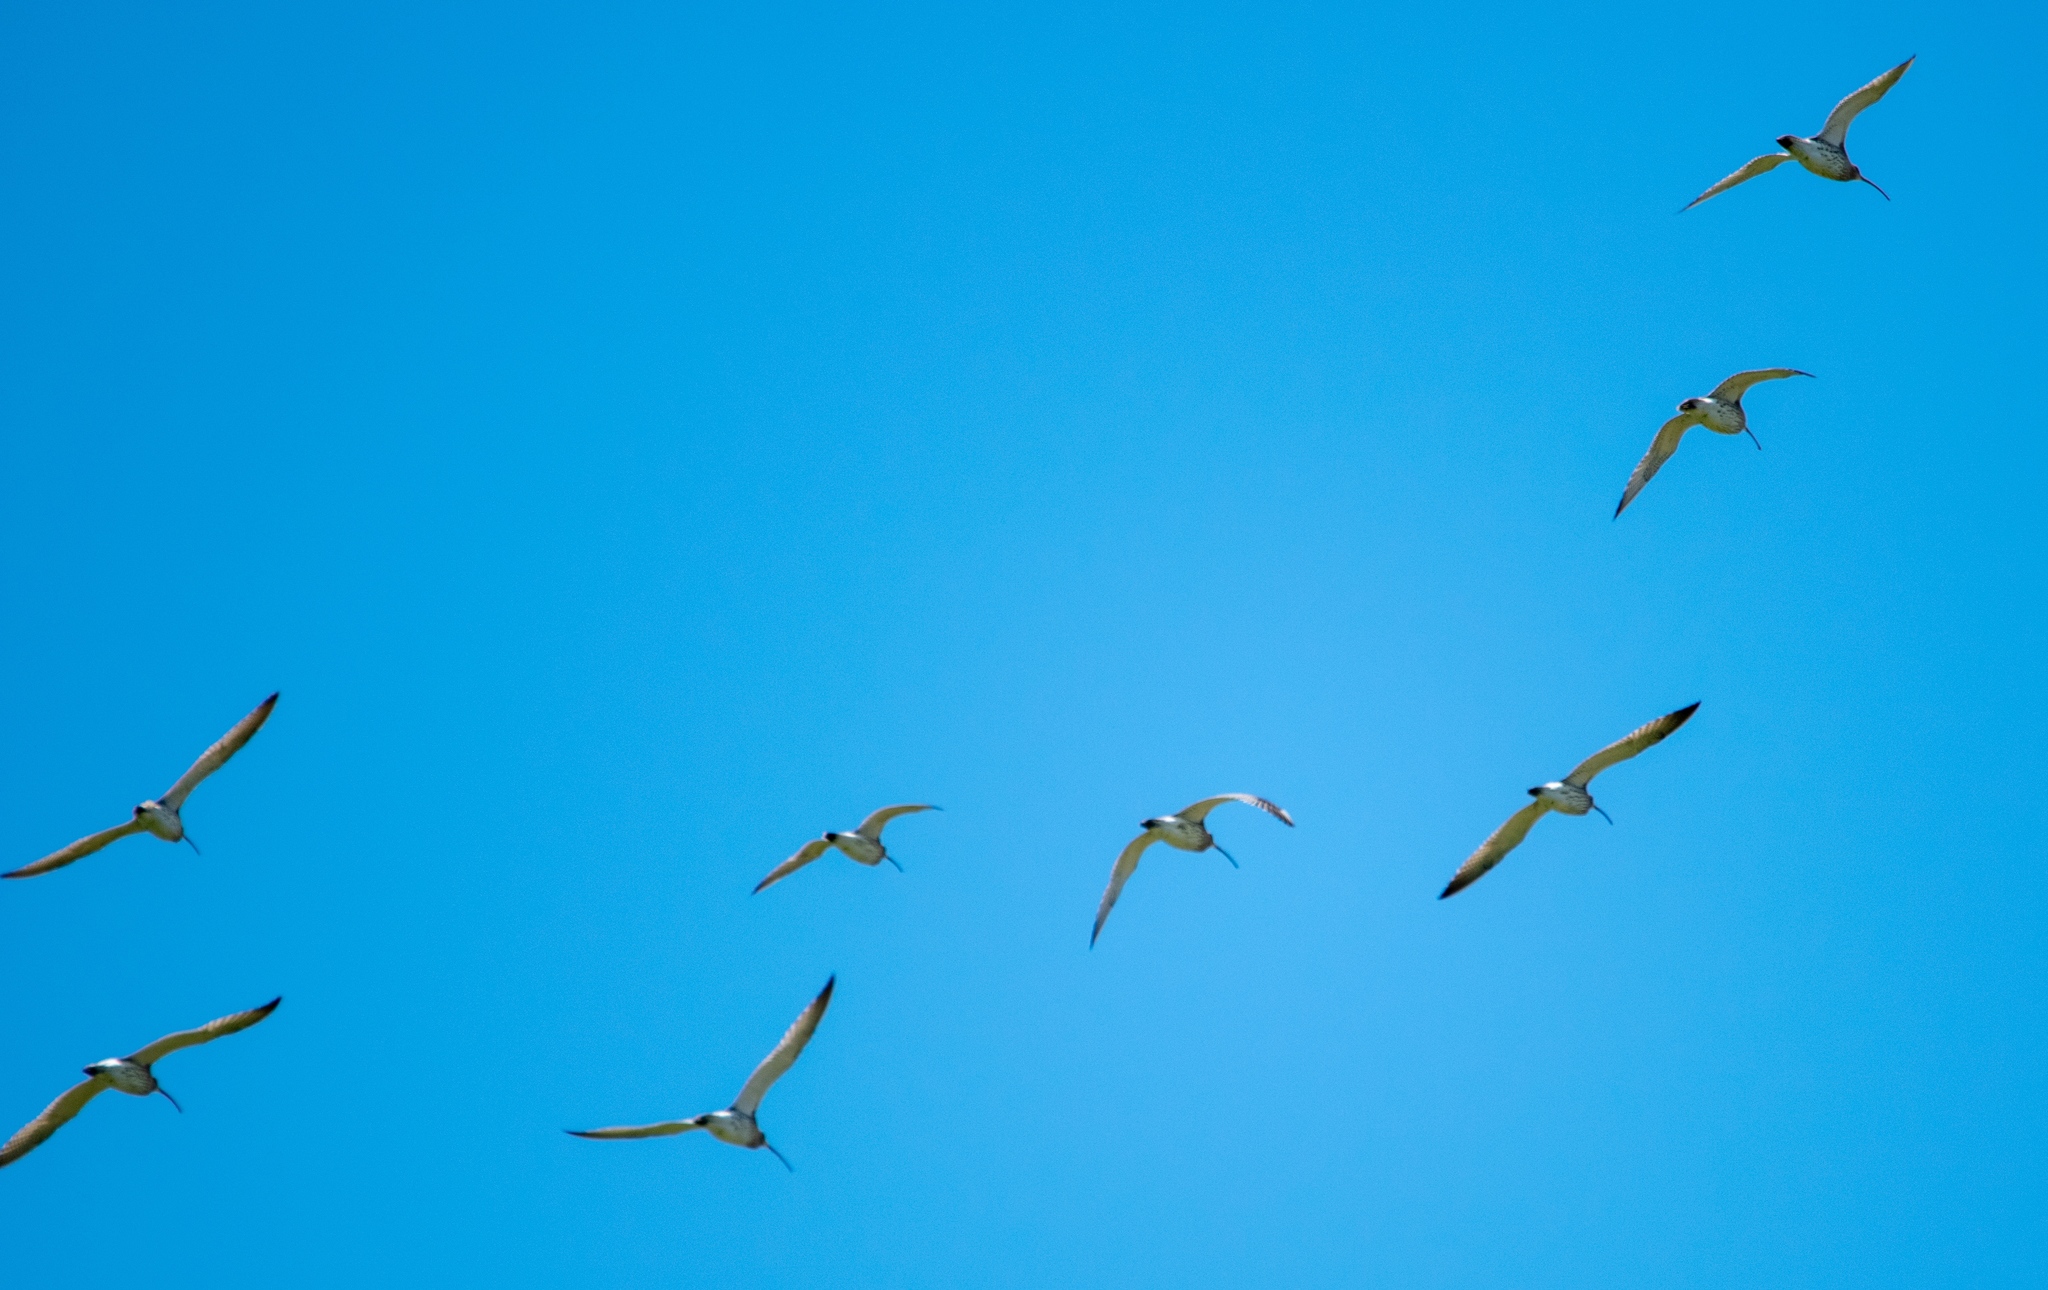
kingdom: Animalia
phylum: Chordata
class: Aves
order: Charadriiformes
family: Scolopacidae
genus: Numenius
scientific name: Numenius arquata
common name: Eurasian curlew
